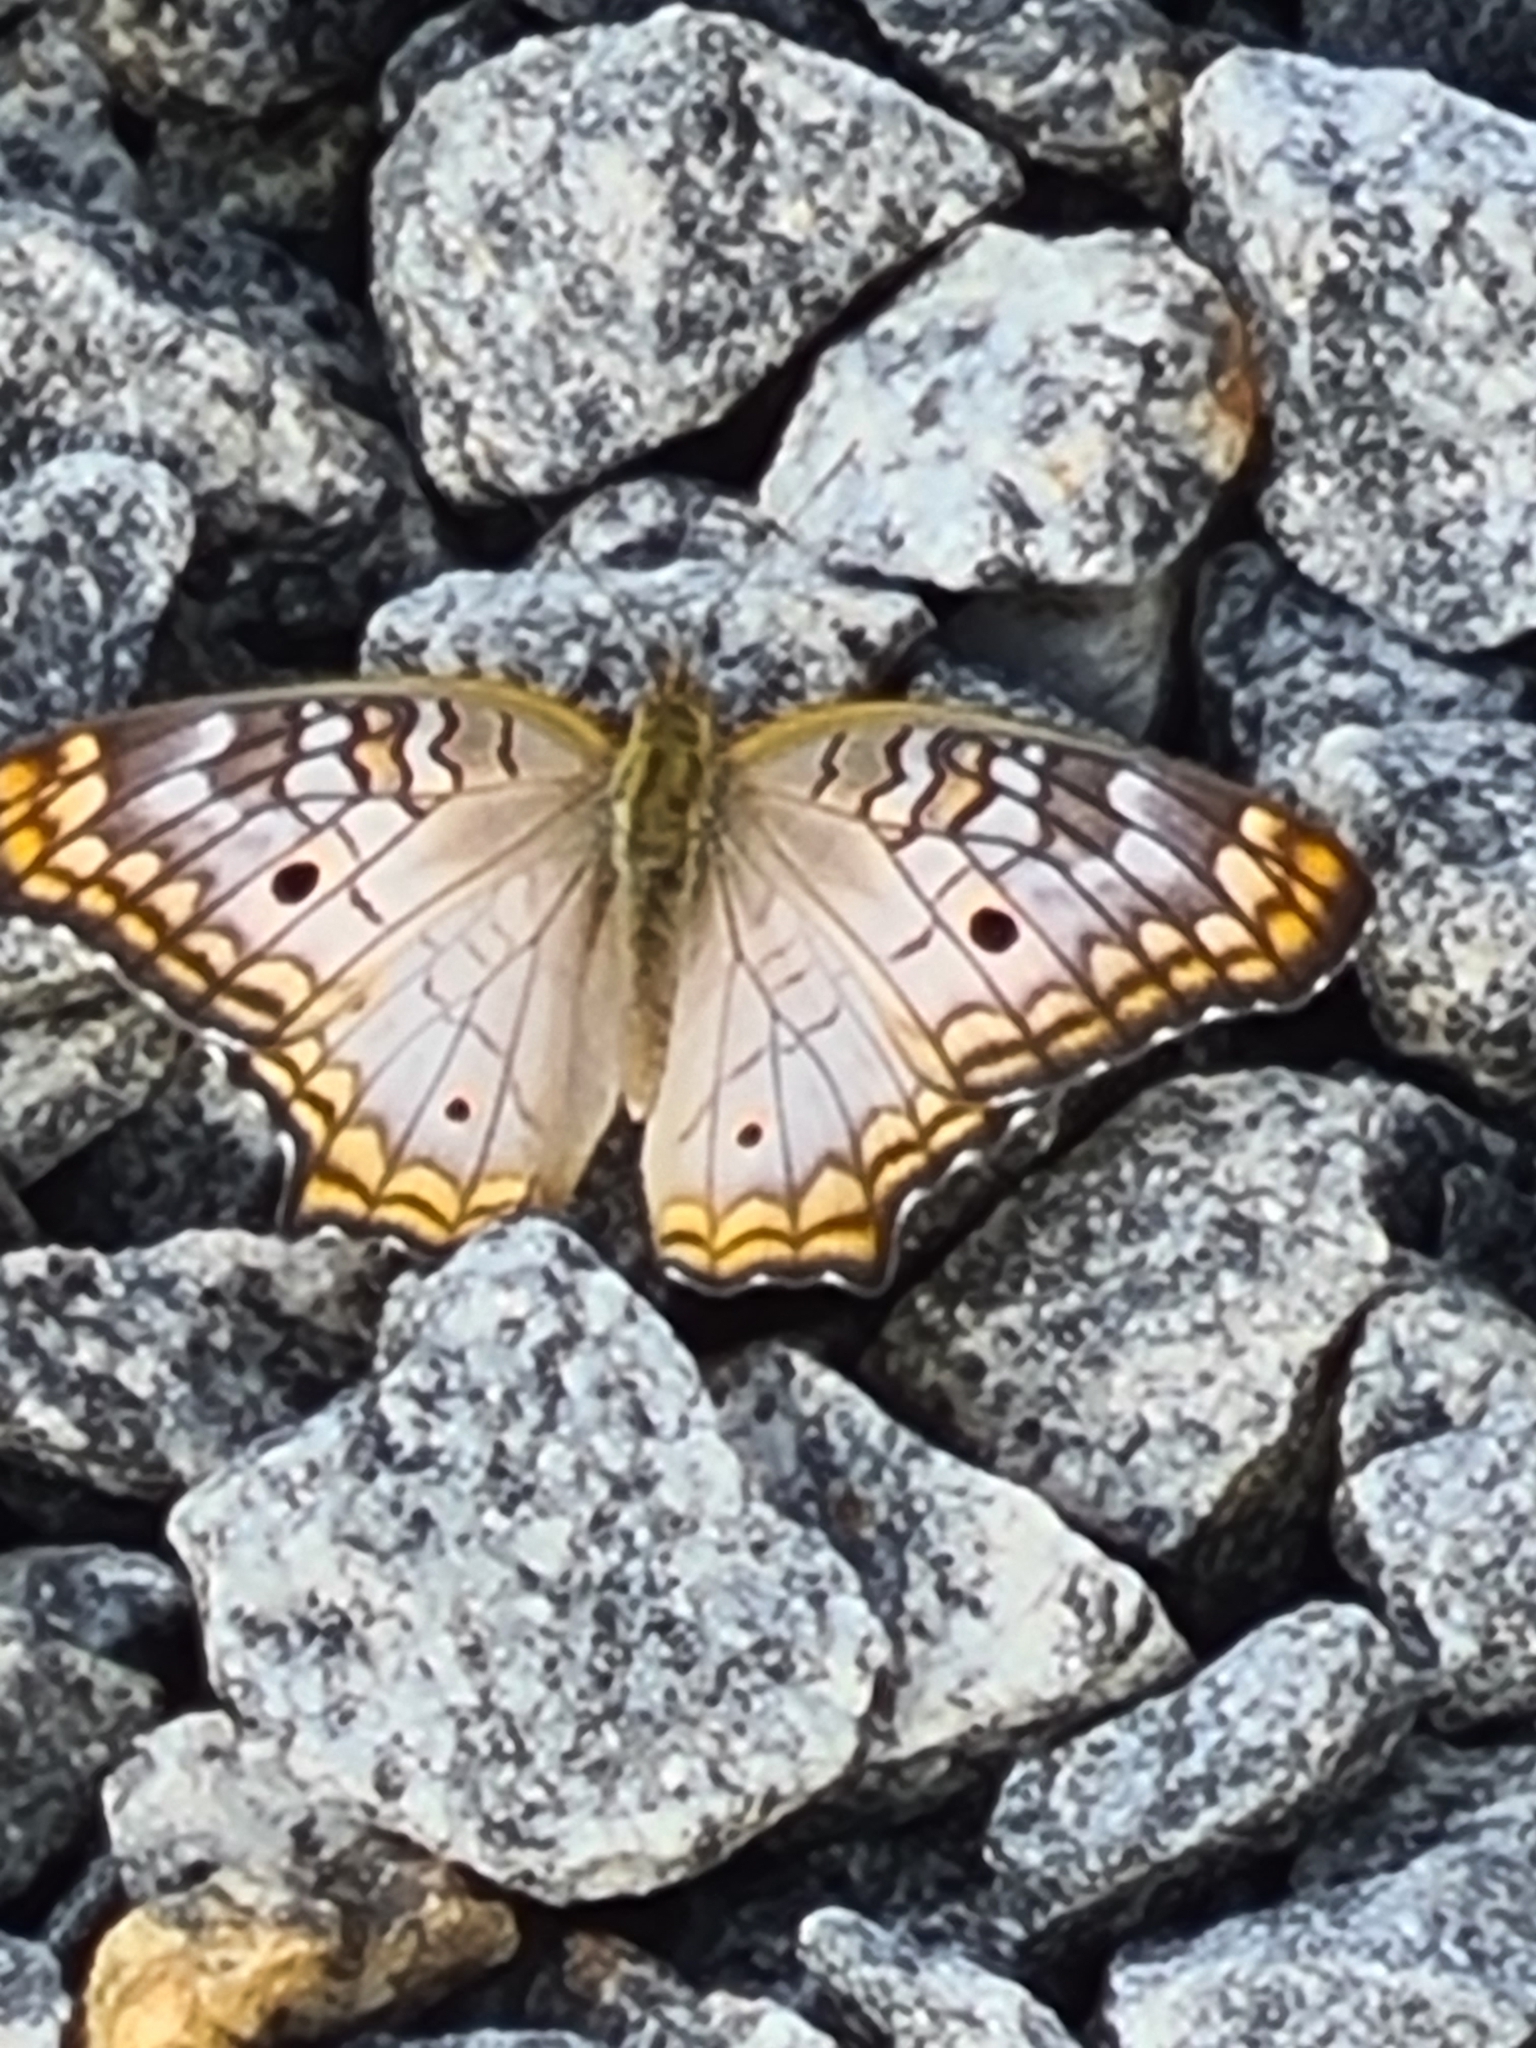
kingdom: Animalia
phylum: Arthropoda
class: Insecta
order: Lepidoptera
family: Nymphalidae
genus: Anartia
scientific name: Anartia jatrophae
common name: White peacock
